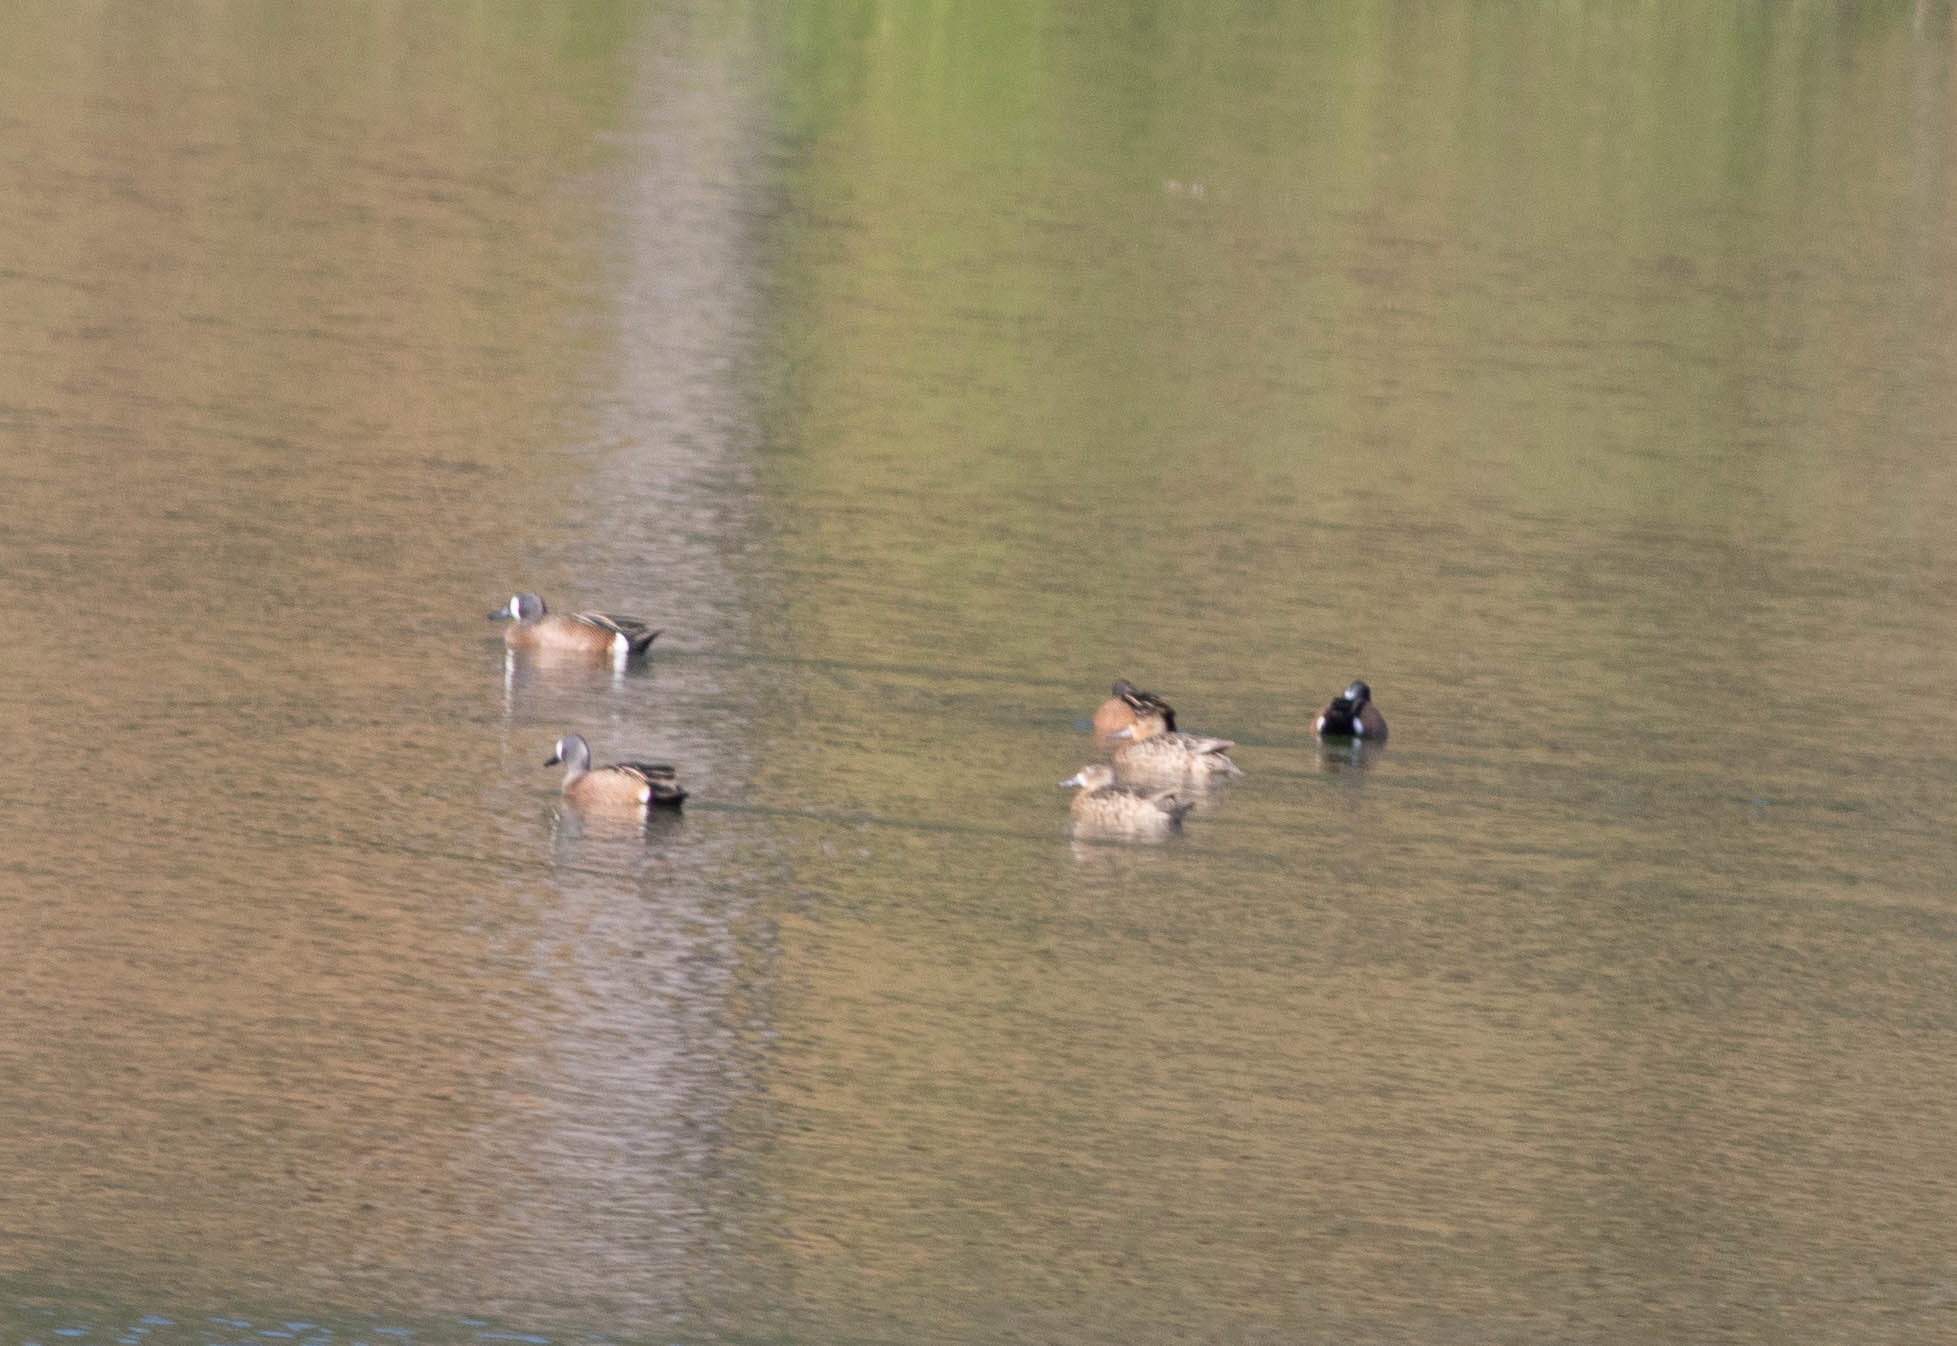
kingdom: Animalia
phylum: Chordata
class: Aves
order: Anseriformes
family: Anatidae
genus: Spatula
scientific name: Spatula discors
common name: Blue-winged teal
